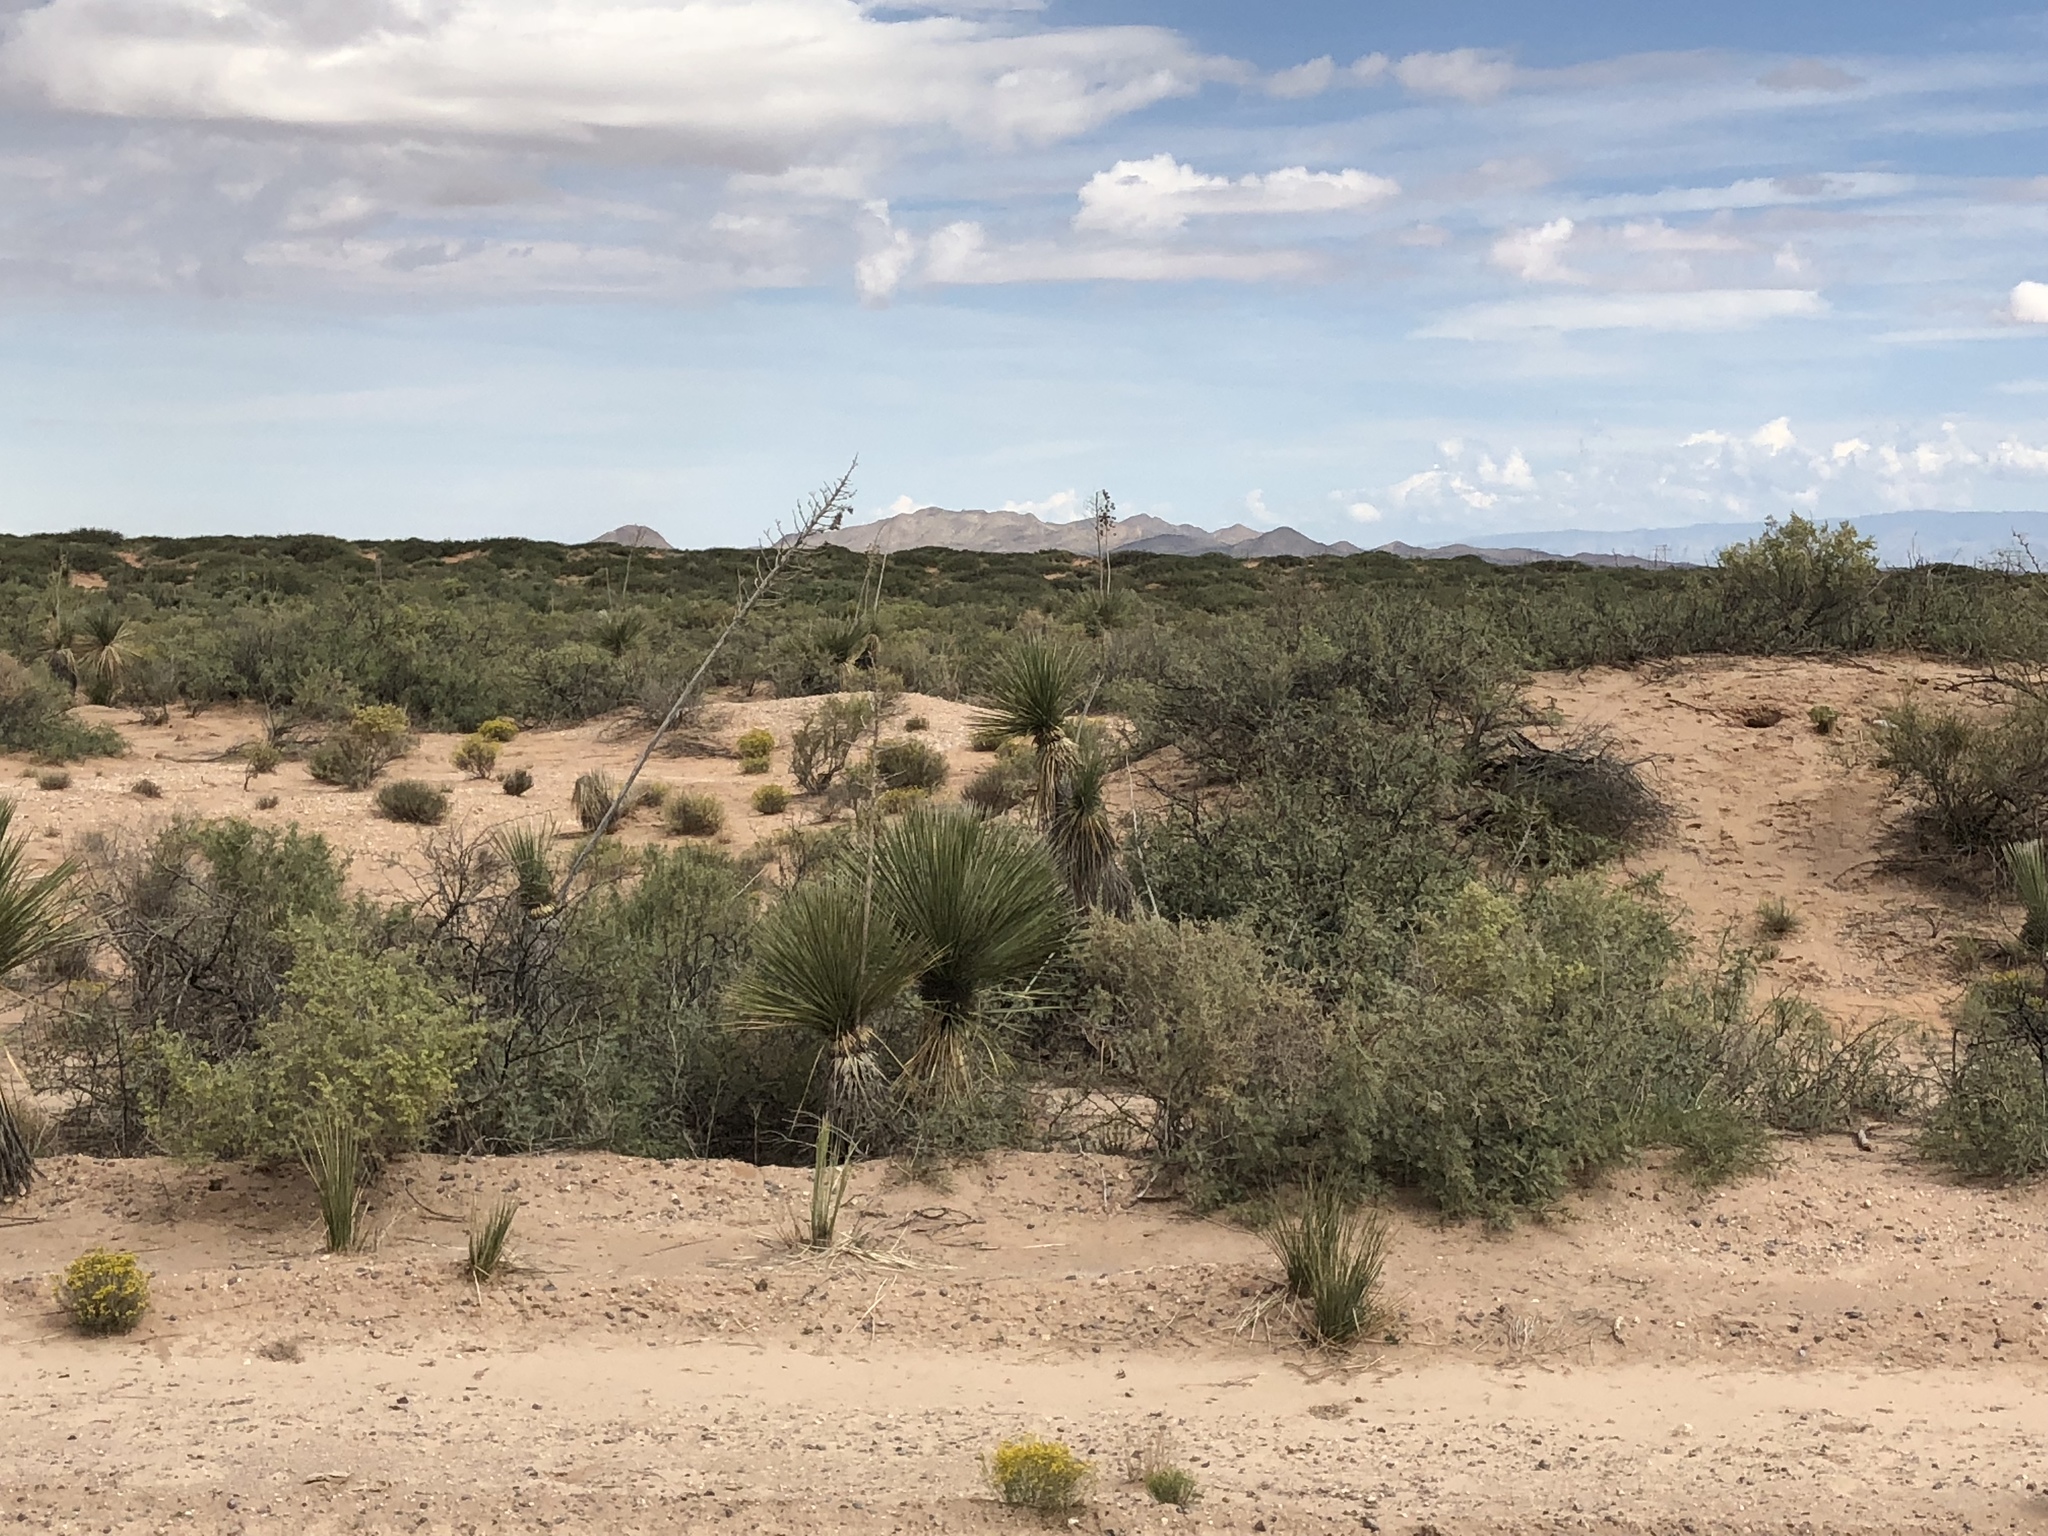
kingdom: Plantae
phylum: Tracheophyta
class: Liliopsida
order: Asparagales
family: Asparagaceae
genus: Yucca
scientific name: Yucca elata
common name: Palmella
